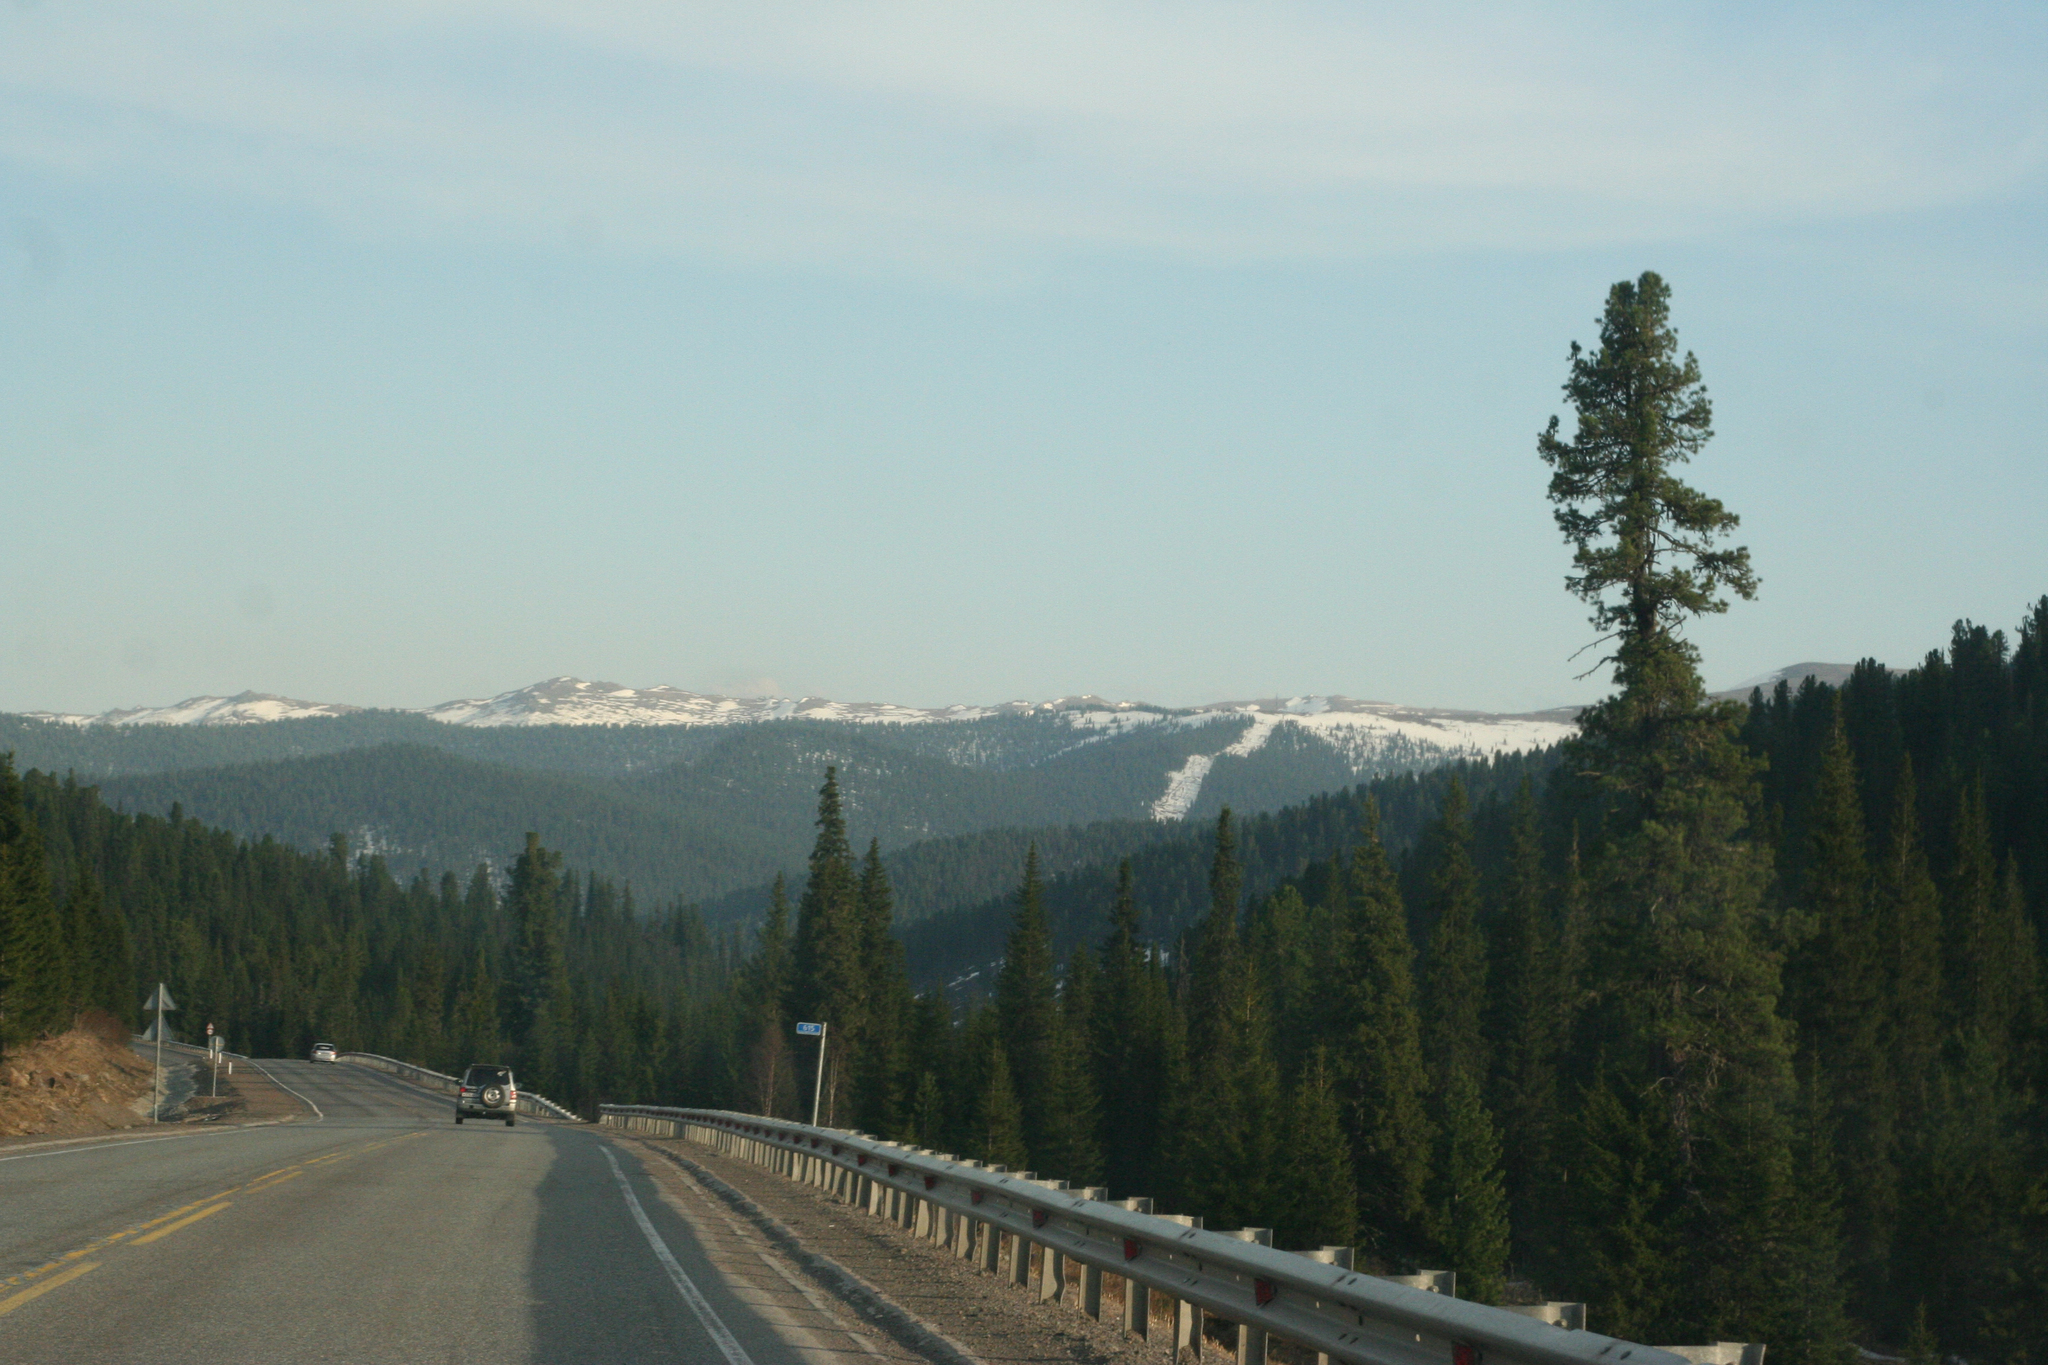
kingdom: Plantae
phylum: Tracheophyta
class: Pinopsida
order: Pinales
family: Pinaceae
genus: Pinus
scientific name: Pinus sibirica
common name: Siberian pine
